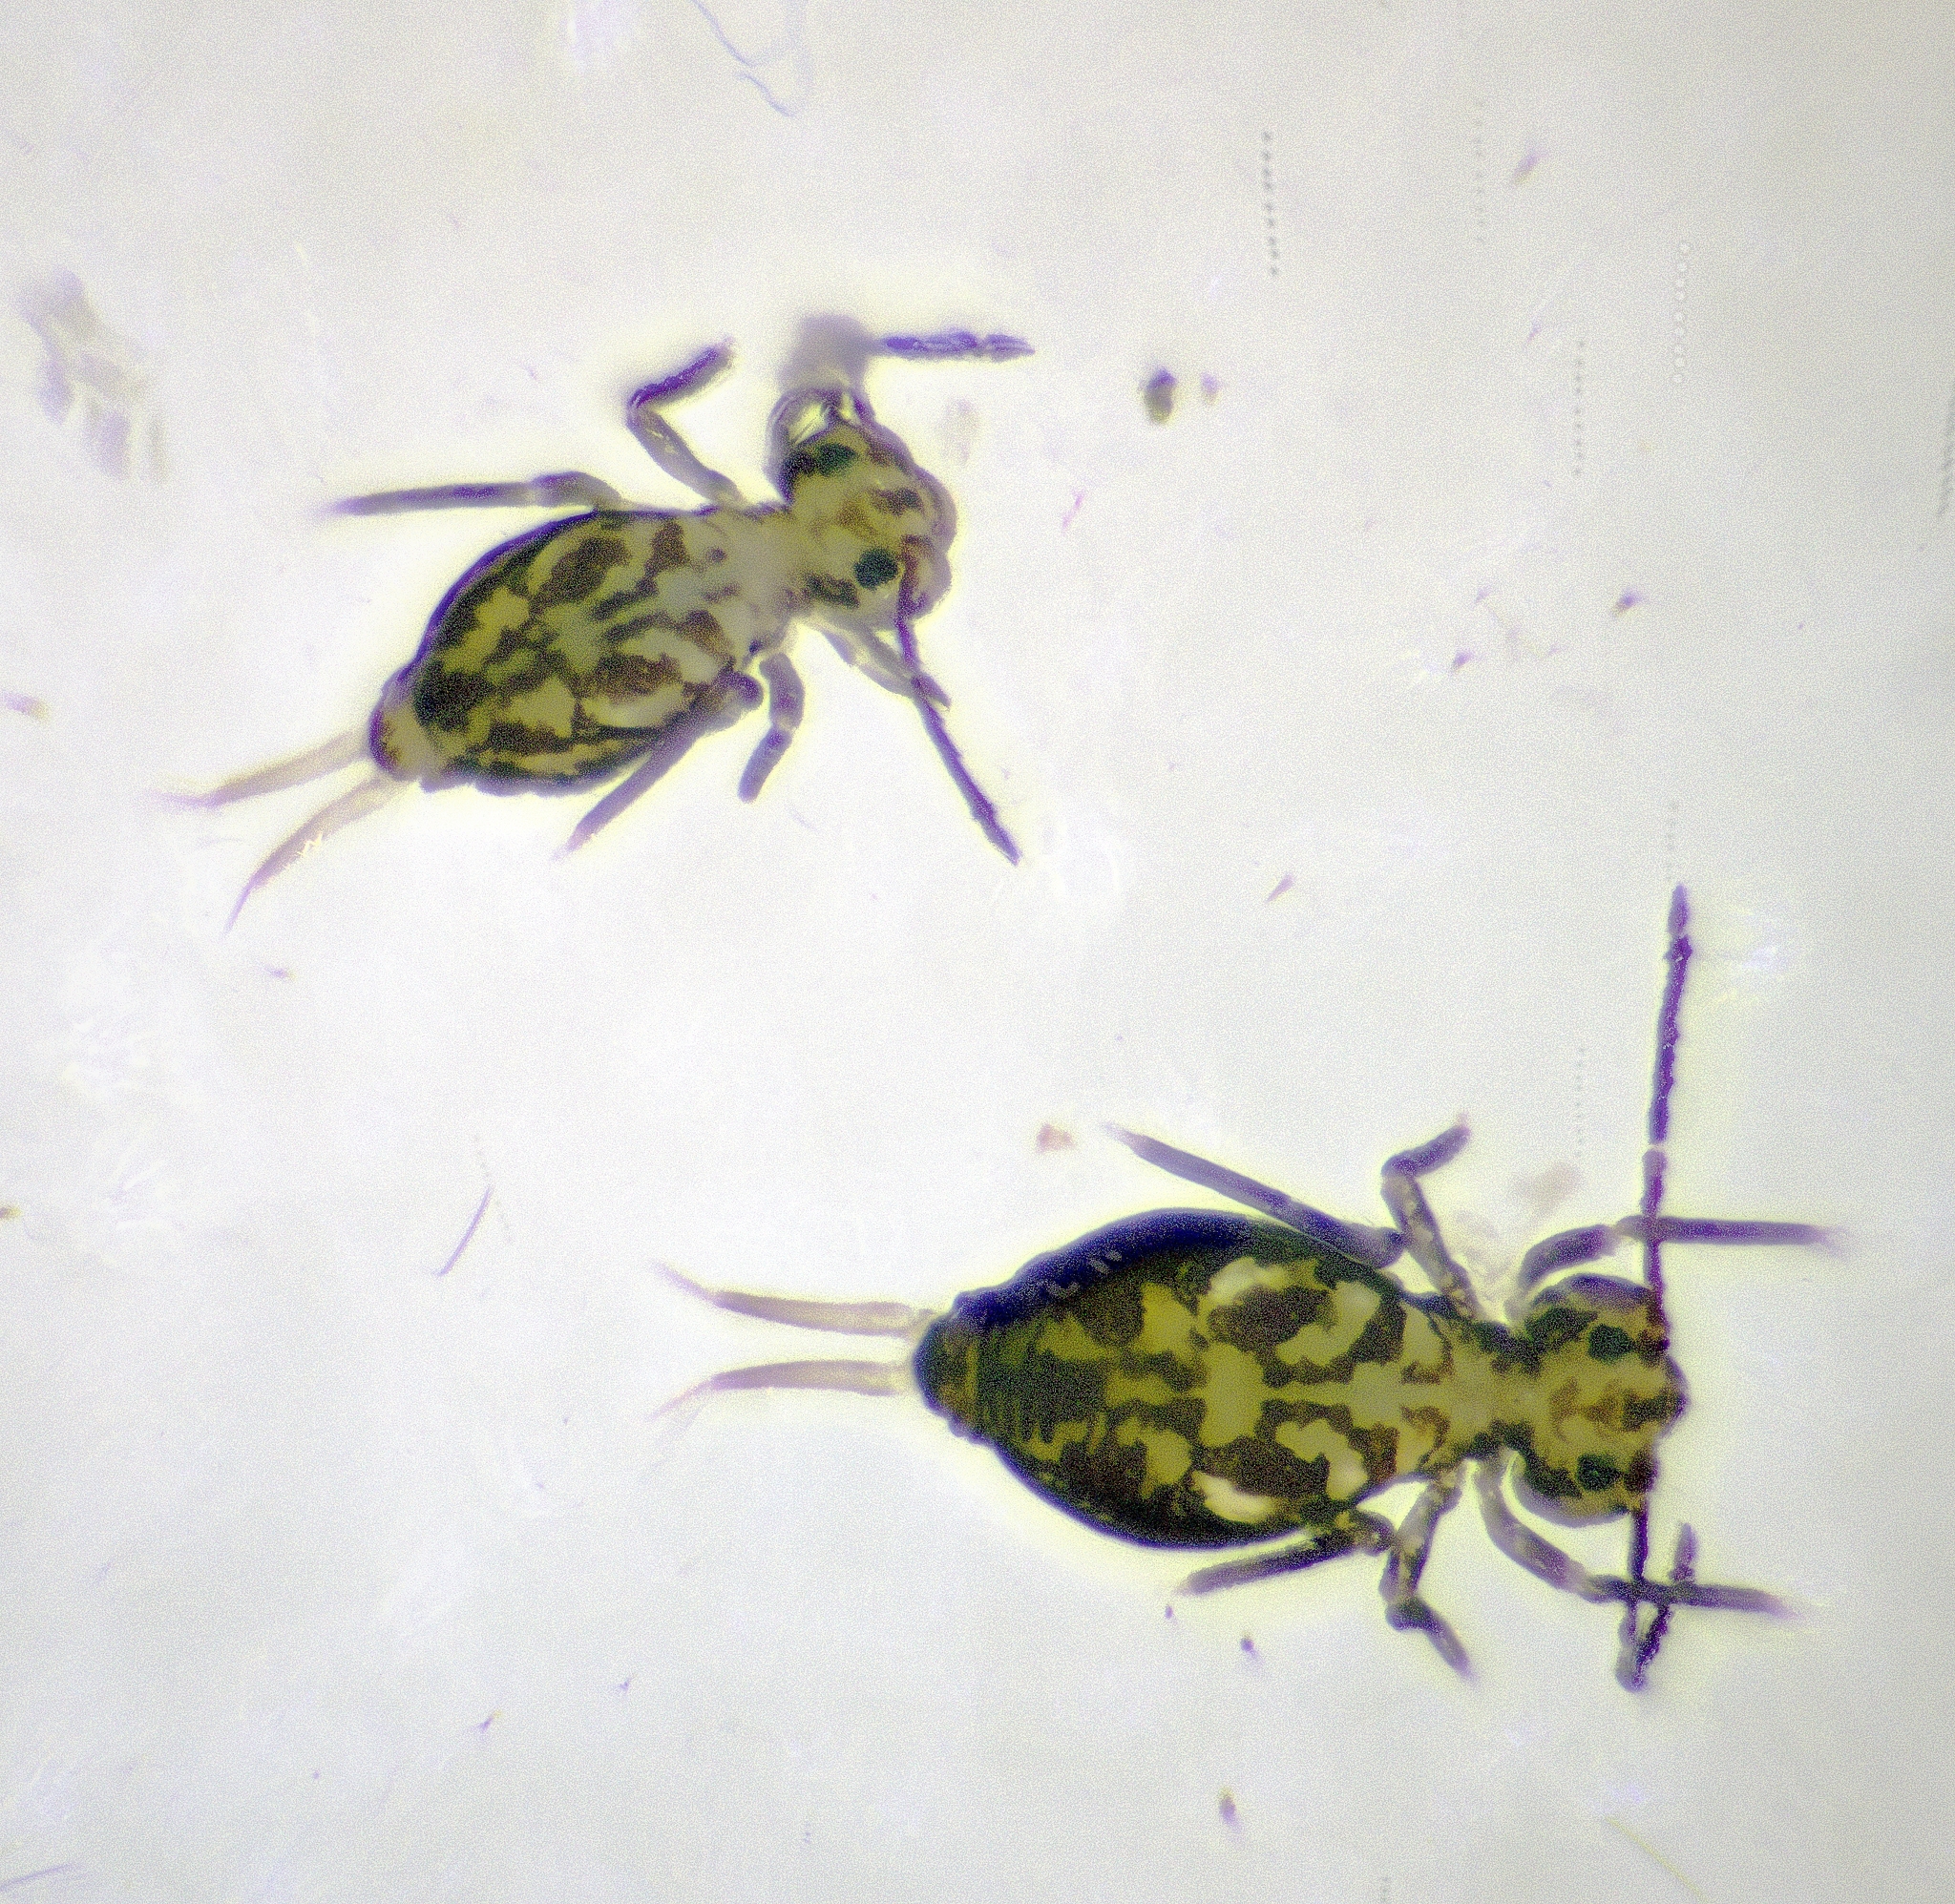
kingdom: Animalia
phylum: Arthropoda
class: Collembola
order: Symphypleona
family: Dicyrtomidae
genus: Dicyrtomina
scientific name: Dicyrtomina saundersi
